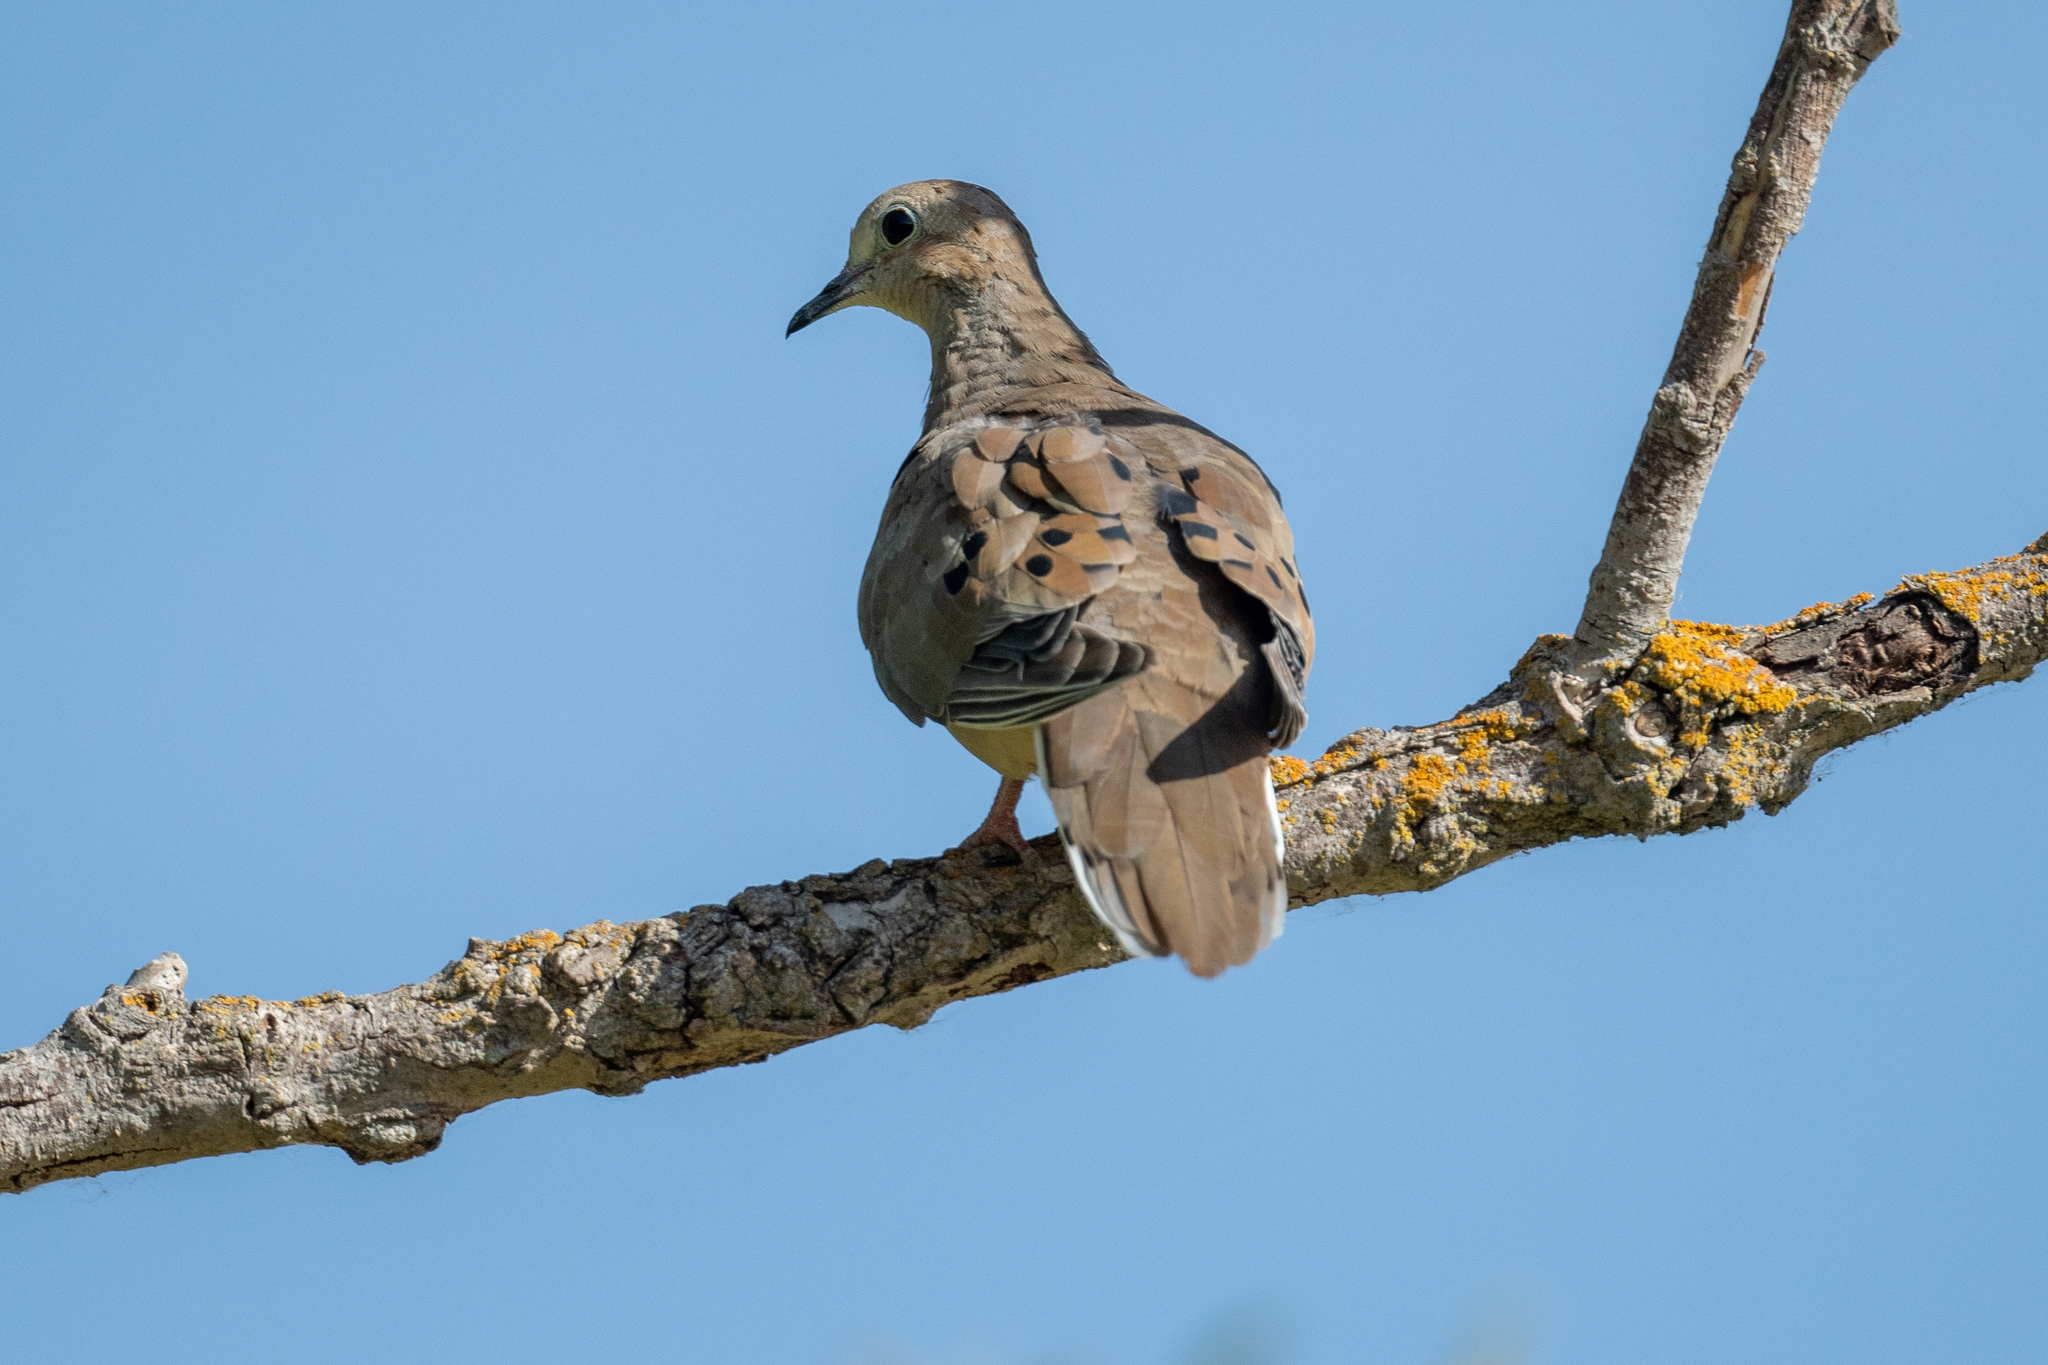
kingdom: Animalia
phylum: Chordata
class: Aves
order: Columbiformes
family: Columbidae
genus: Zenaida
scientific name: Zenaida macroura
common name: Mourning dove
